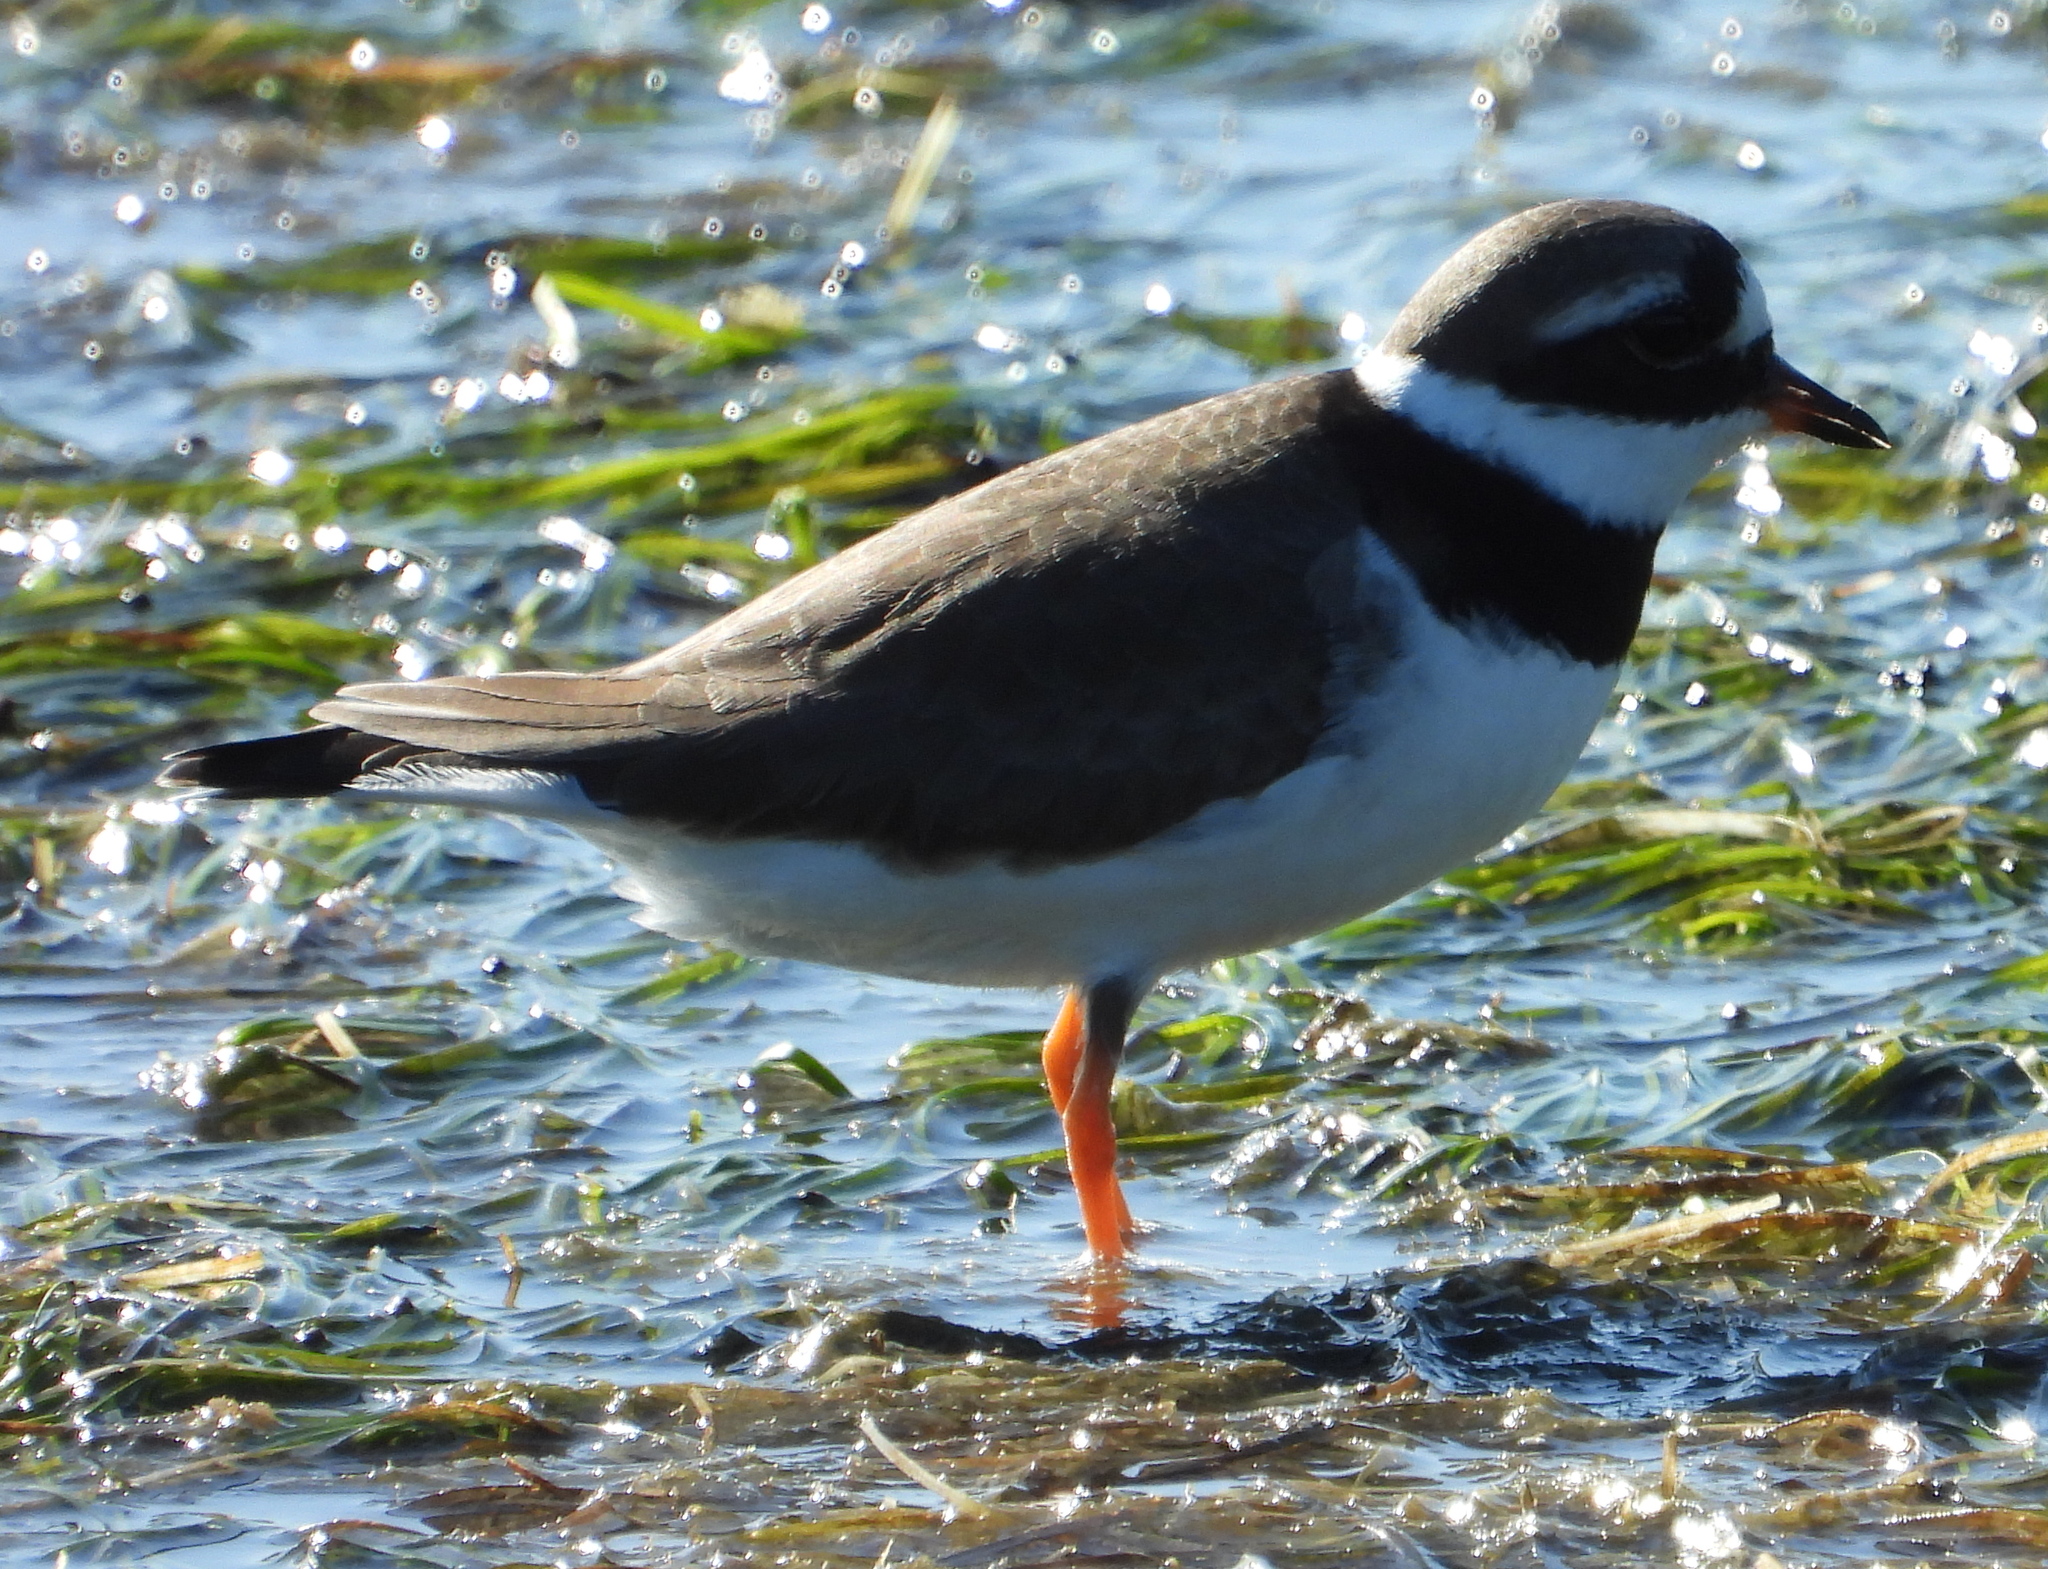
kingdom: Animalia
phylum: Chordata
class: Aves
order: Charadriiformes
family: Charadriidae
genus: Charadrius
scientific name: Charadrius hiaticula
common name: Common ringed plover
